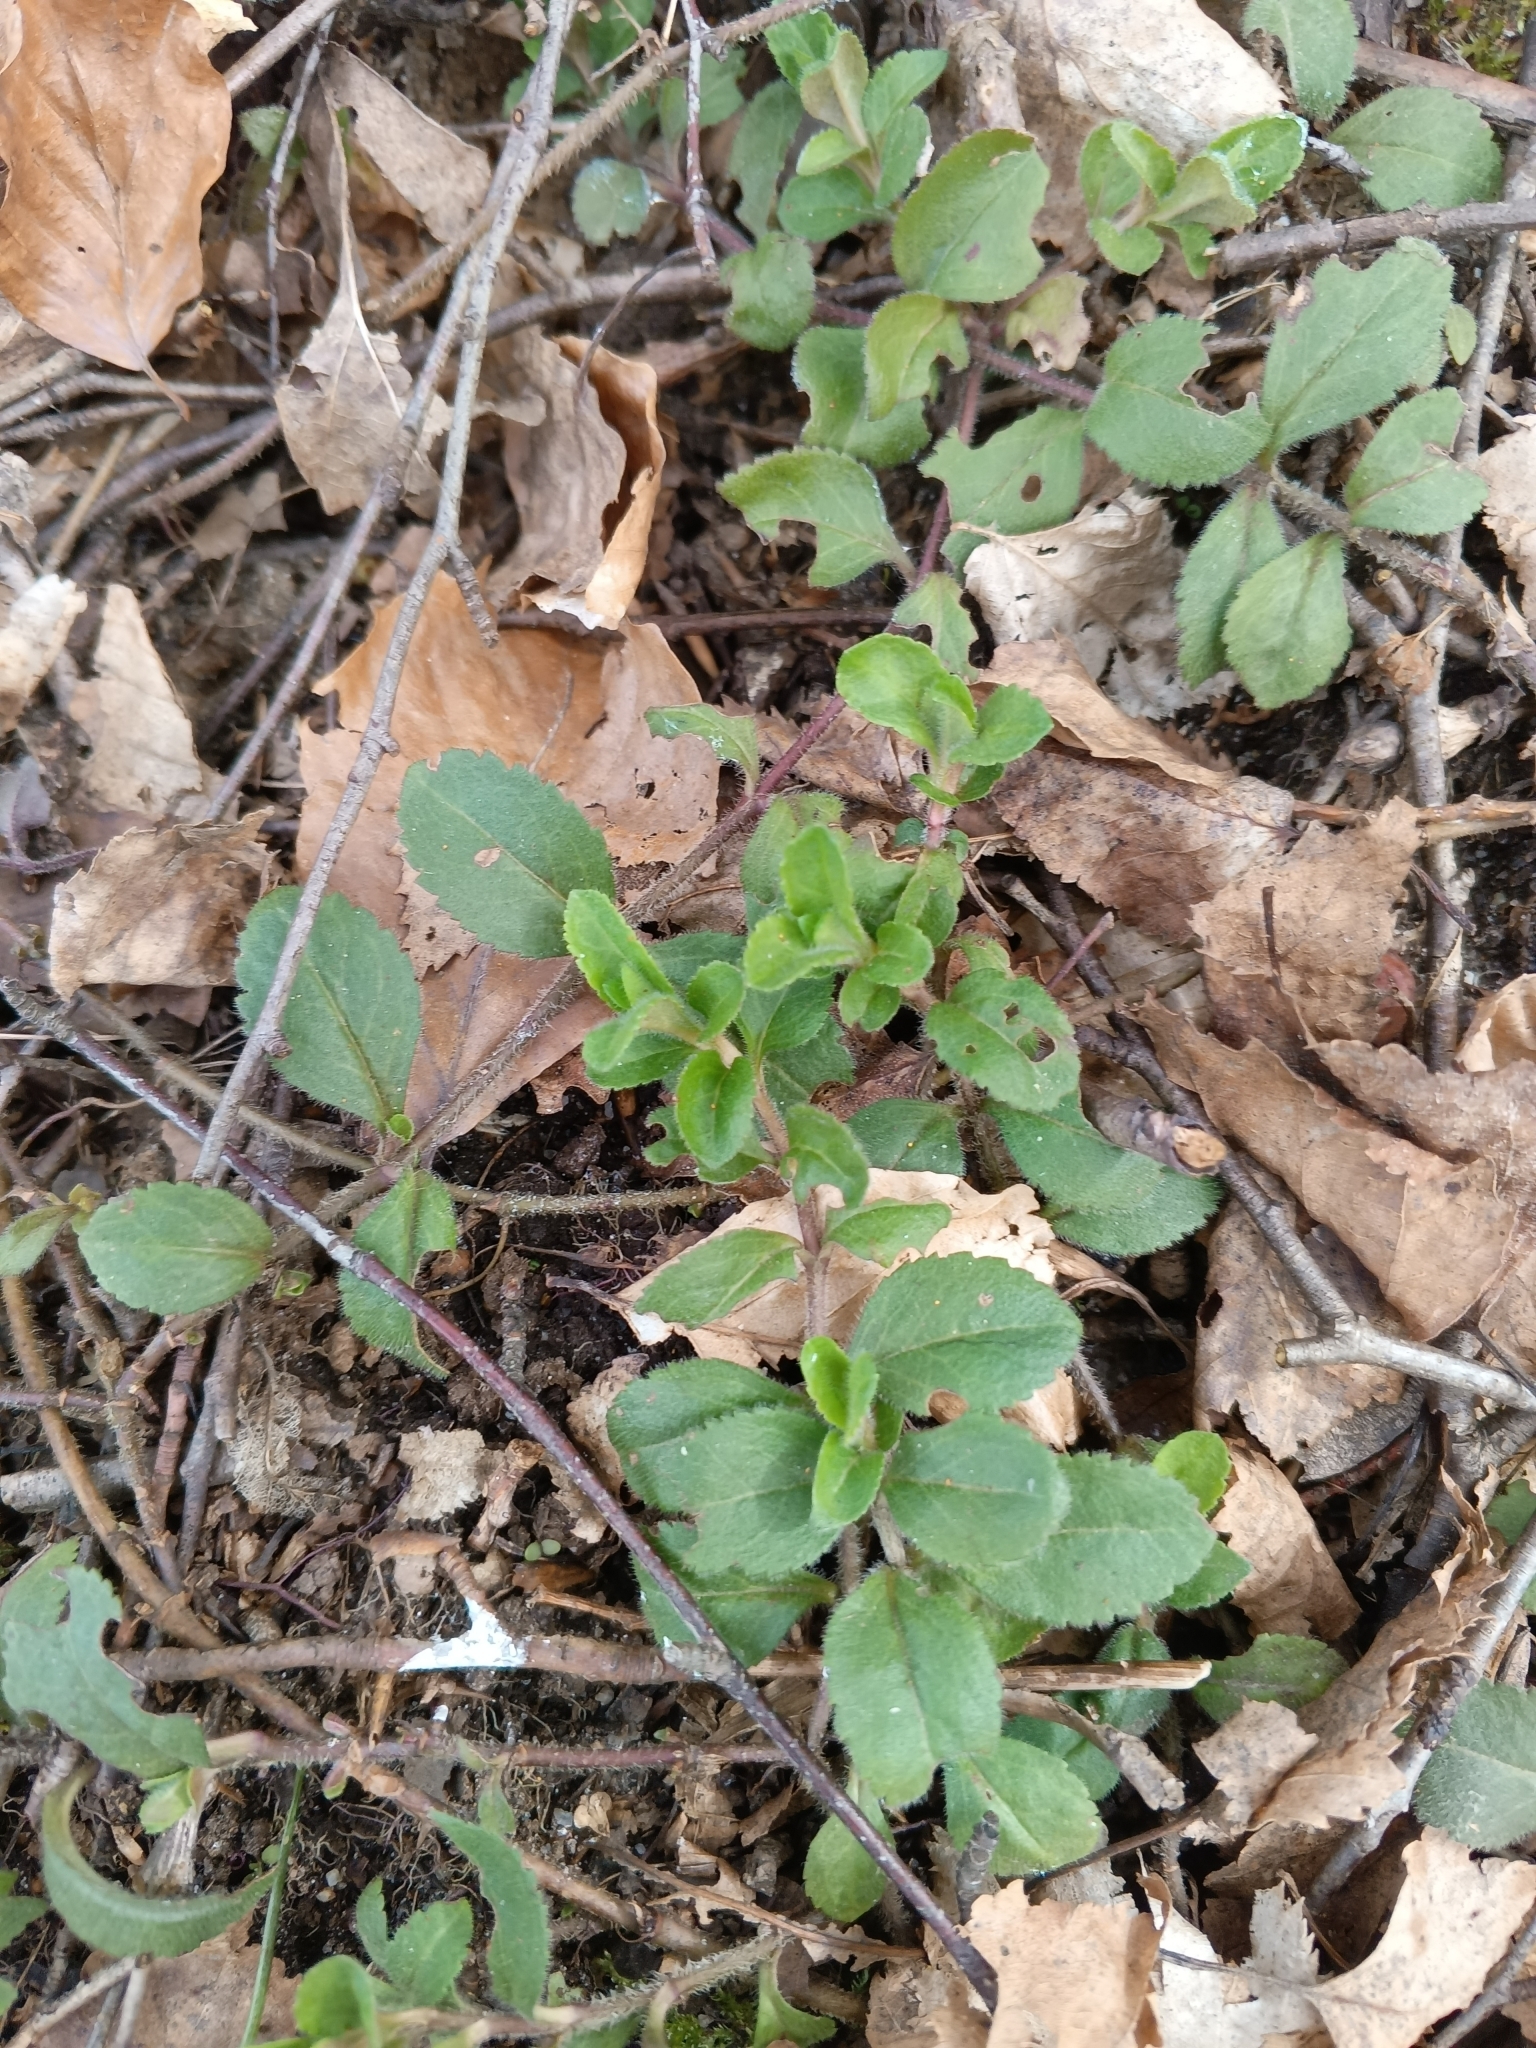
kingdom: Plantae
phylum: Tracheophyta
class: Magnoliopsida
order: Lamiales
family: Plantaginaceae
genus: Veronica
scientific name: Veronica officinalis
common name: Common speedwell
